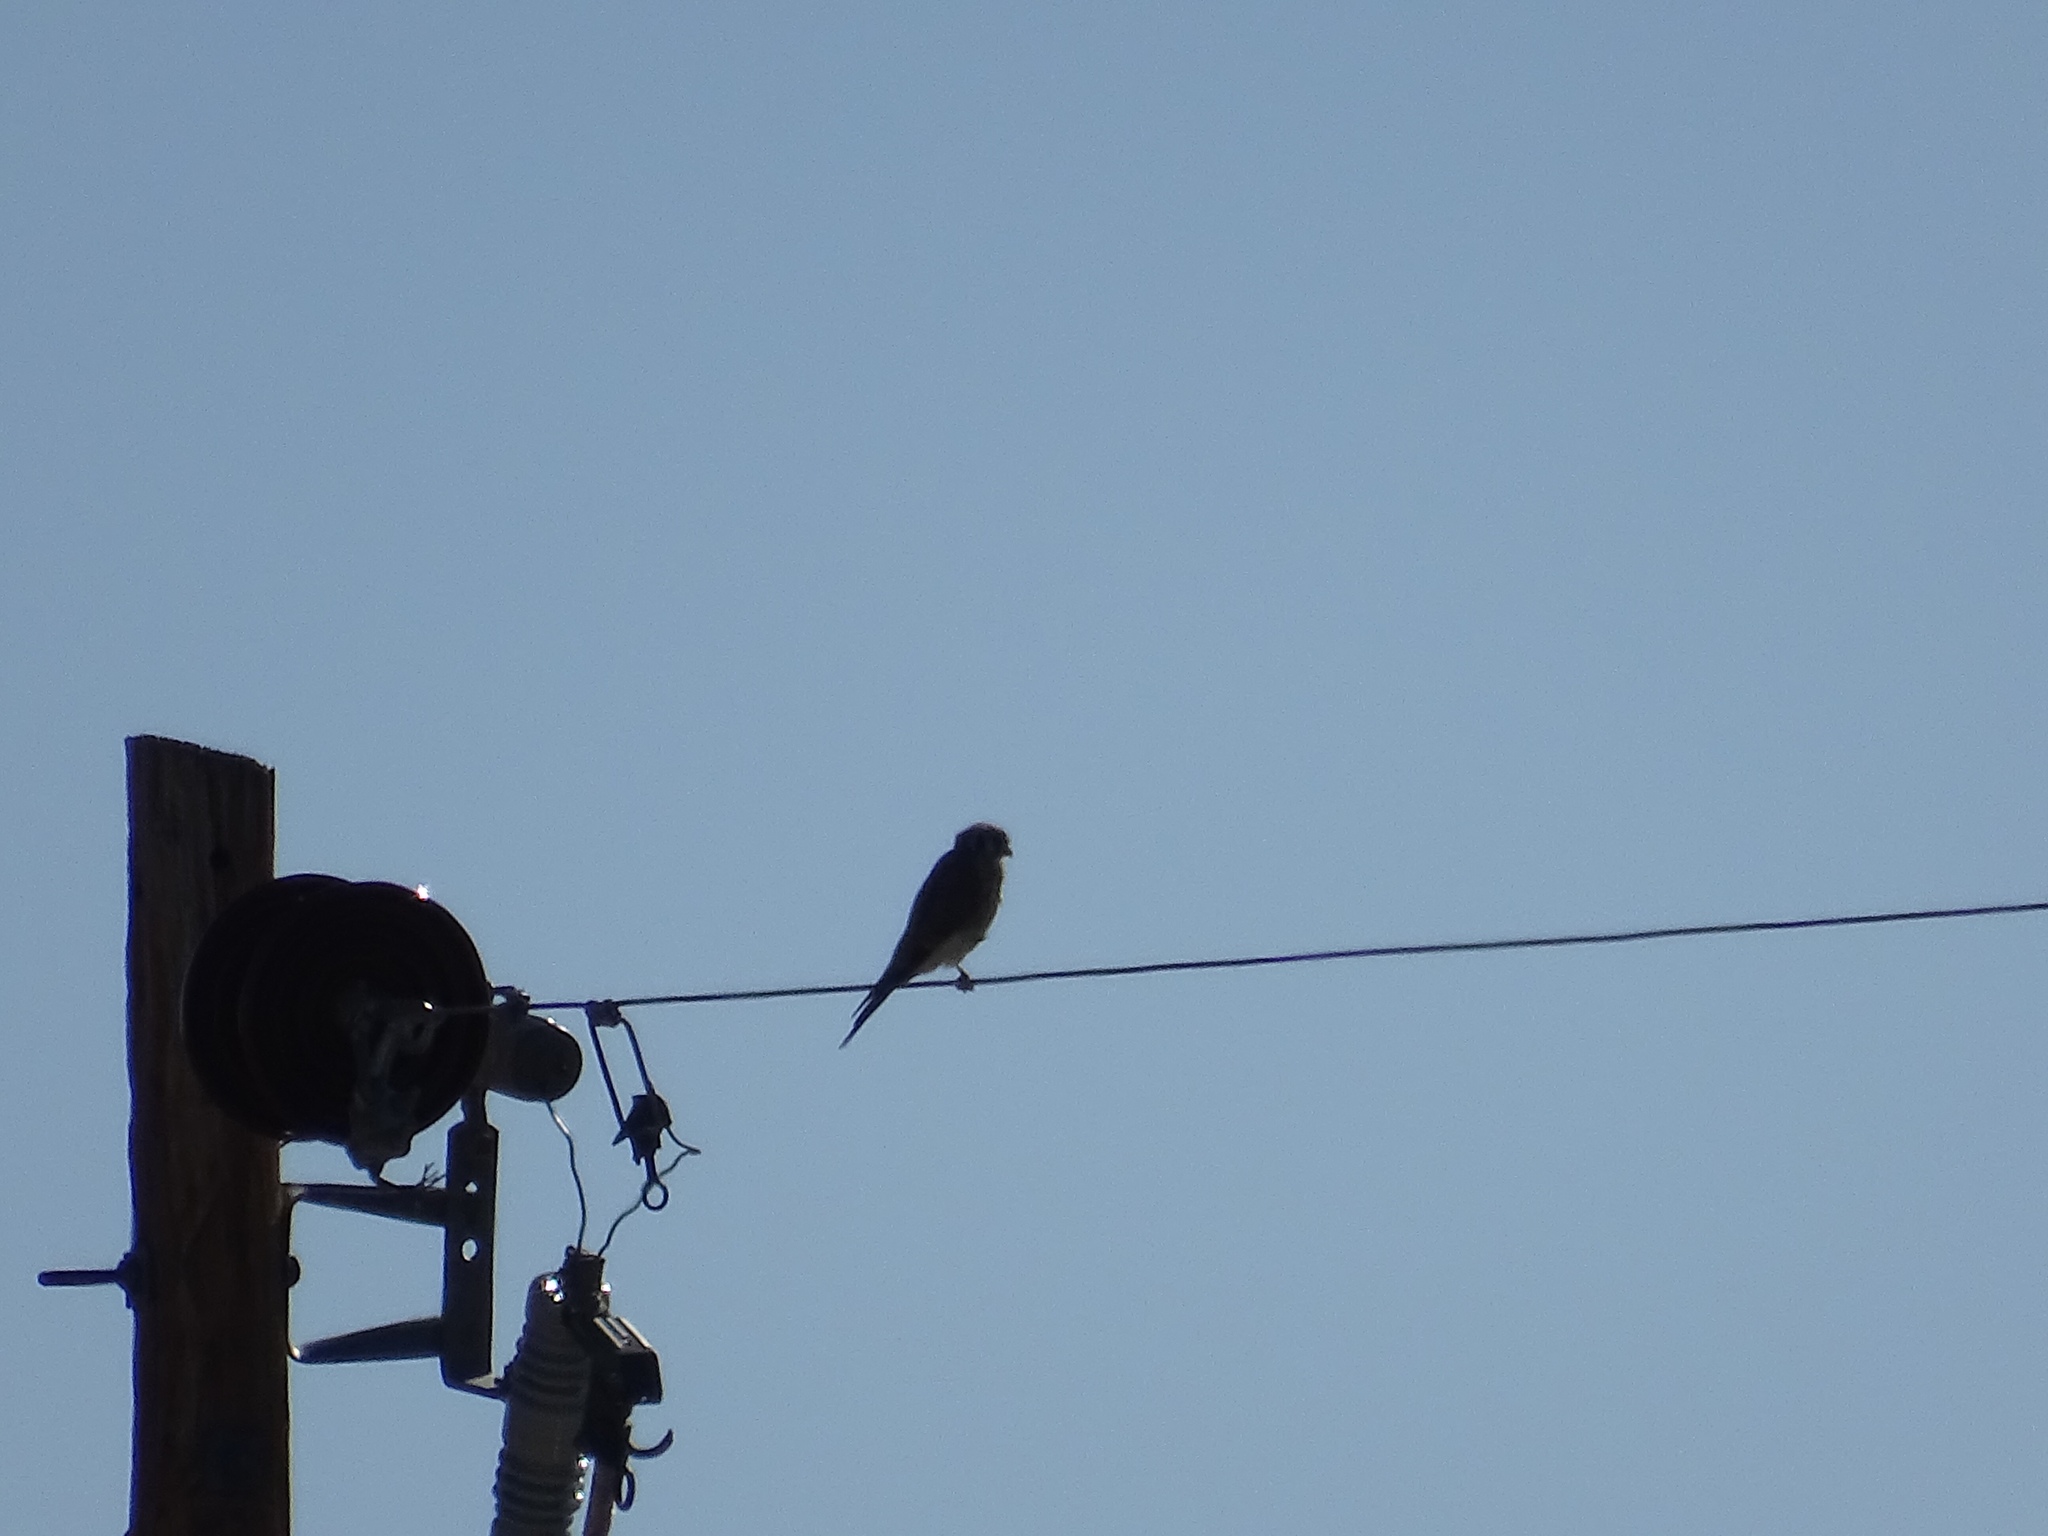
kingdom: Animalia
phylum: Chordata
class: Aves
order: Falconiformes
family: Falconidae
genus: Falco
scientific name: Falco sparverius
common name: American kestrel
